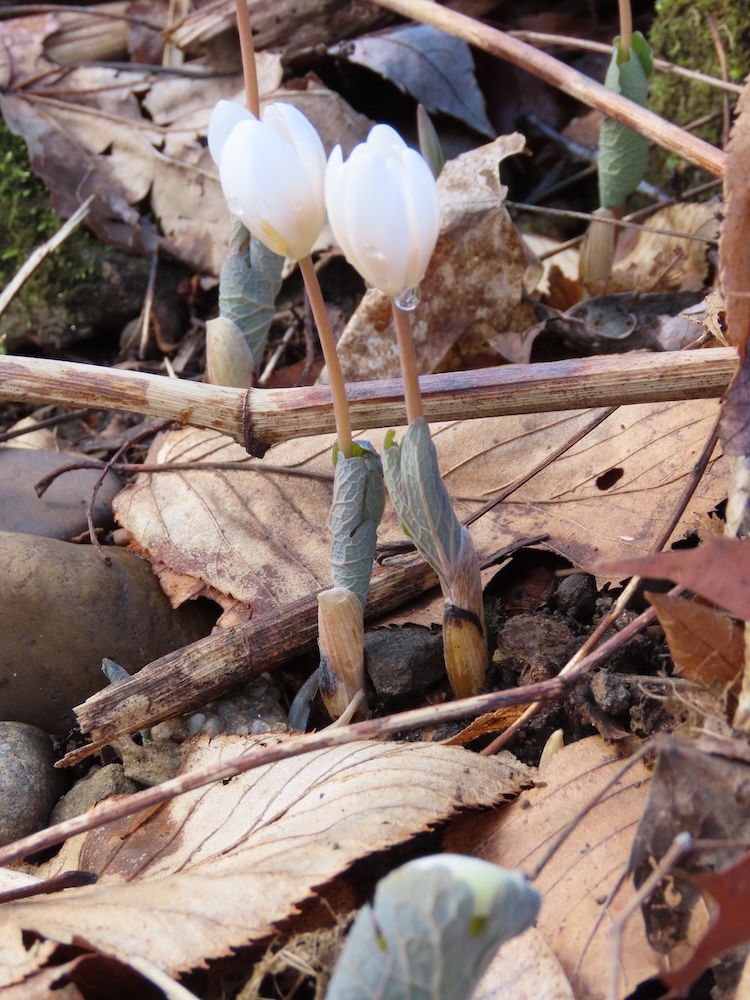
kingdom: Plantae
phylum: Tracheophyta
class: Magnoliopsida
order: Ranunculales
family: Papaveraceae
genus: Sanguinaria
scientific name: Sanguinaria canadensis
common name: Bloodroot
